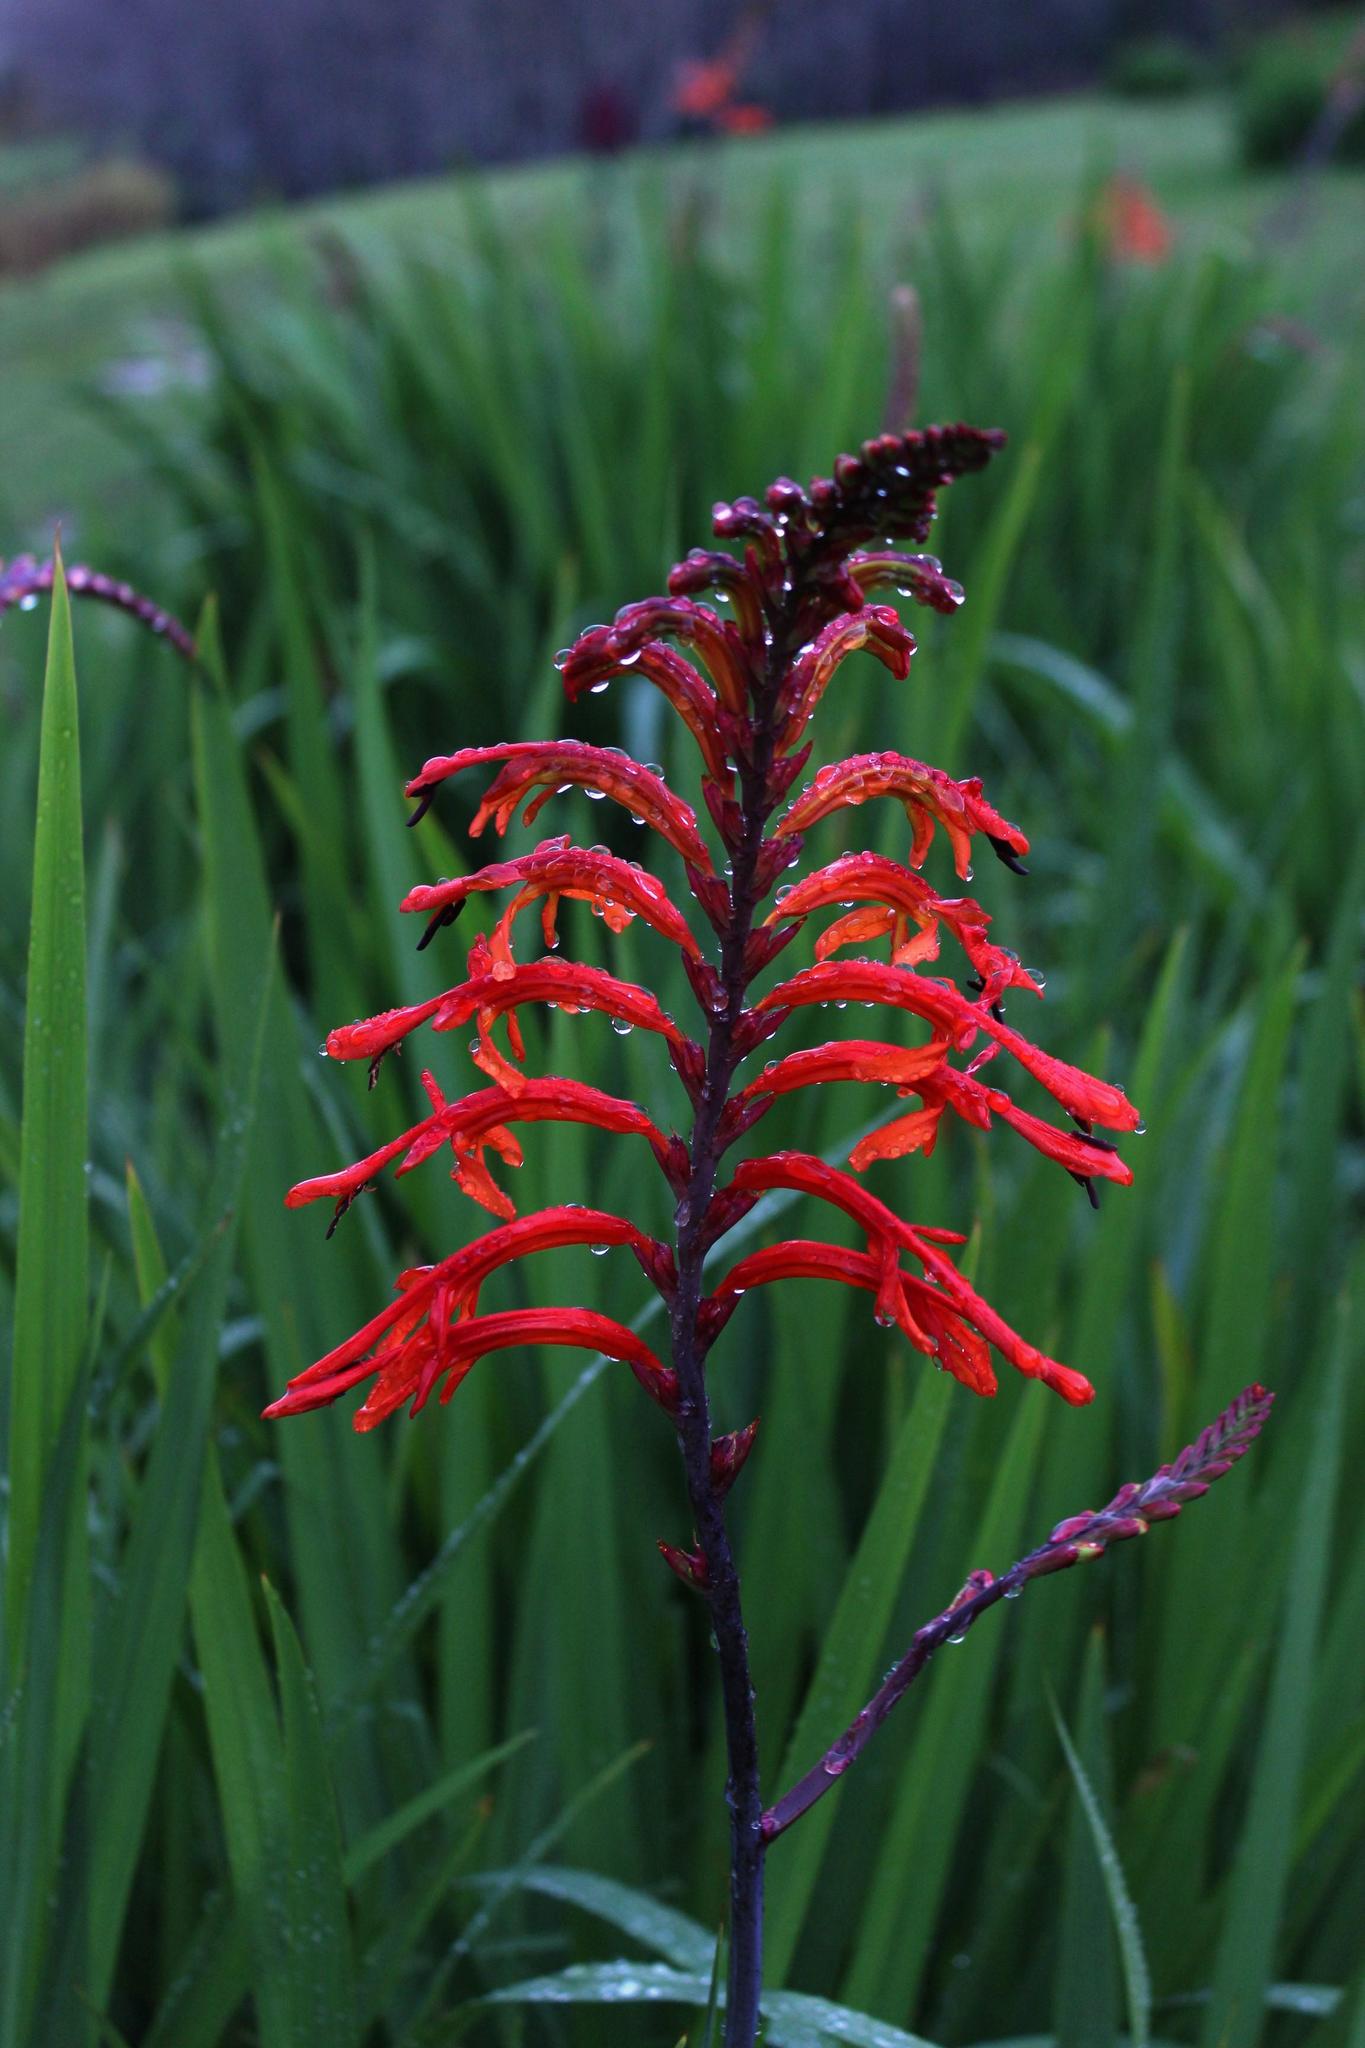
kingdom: Plantae
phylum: Tracheophyta
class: Liliopsida
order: Asparagales
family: Iridaceae
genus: Chasmanthe
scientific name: Chasmanthe floribunda
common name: African cornflag
